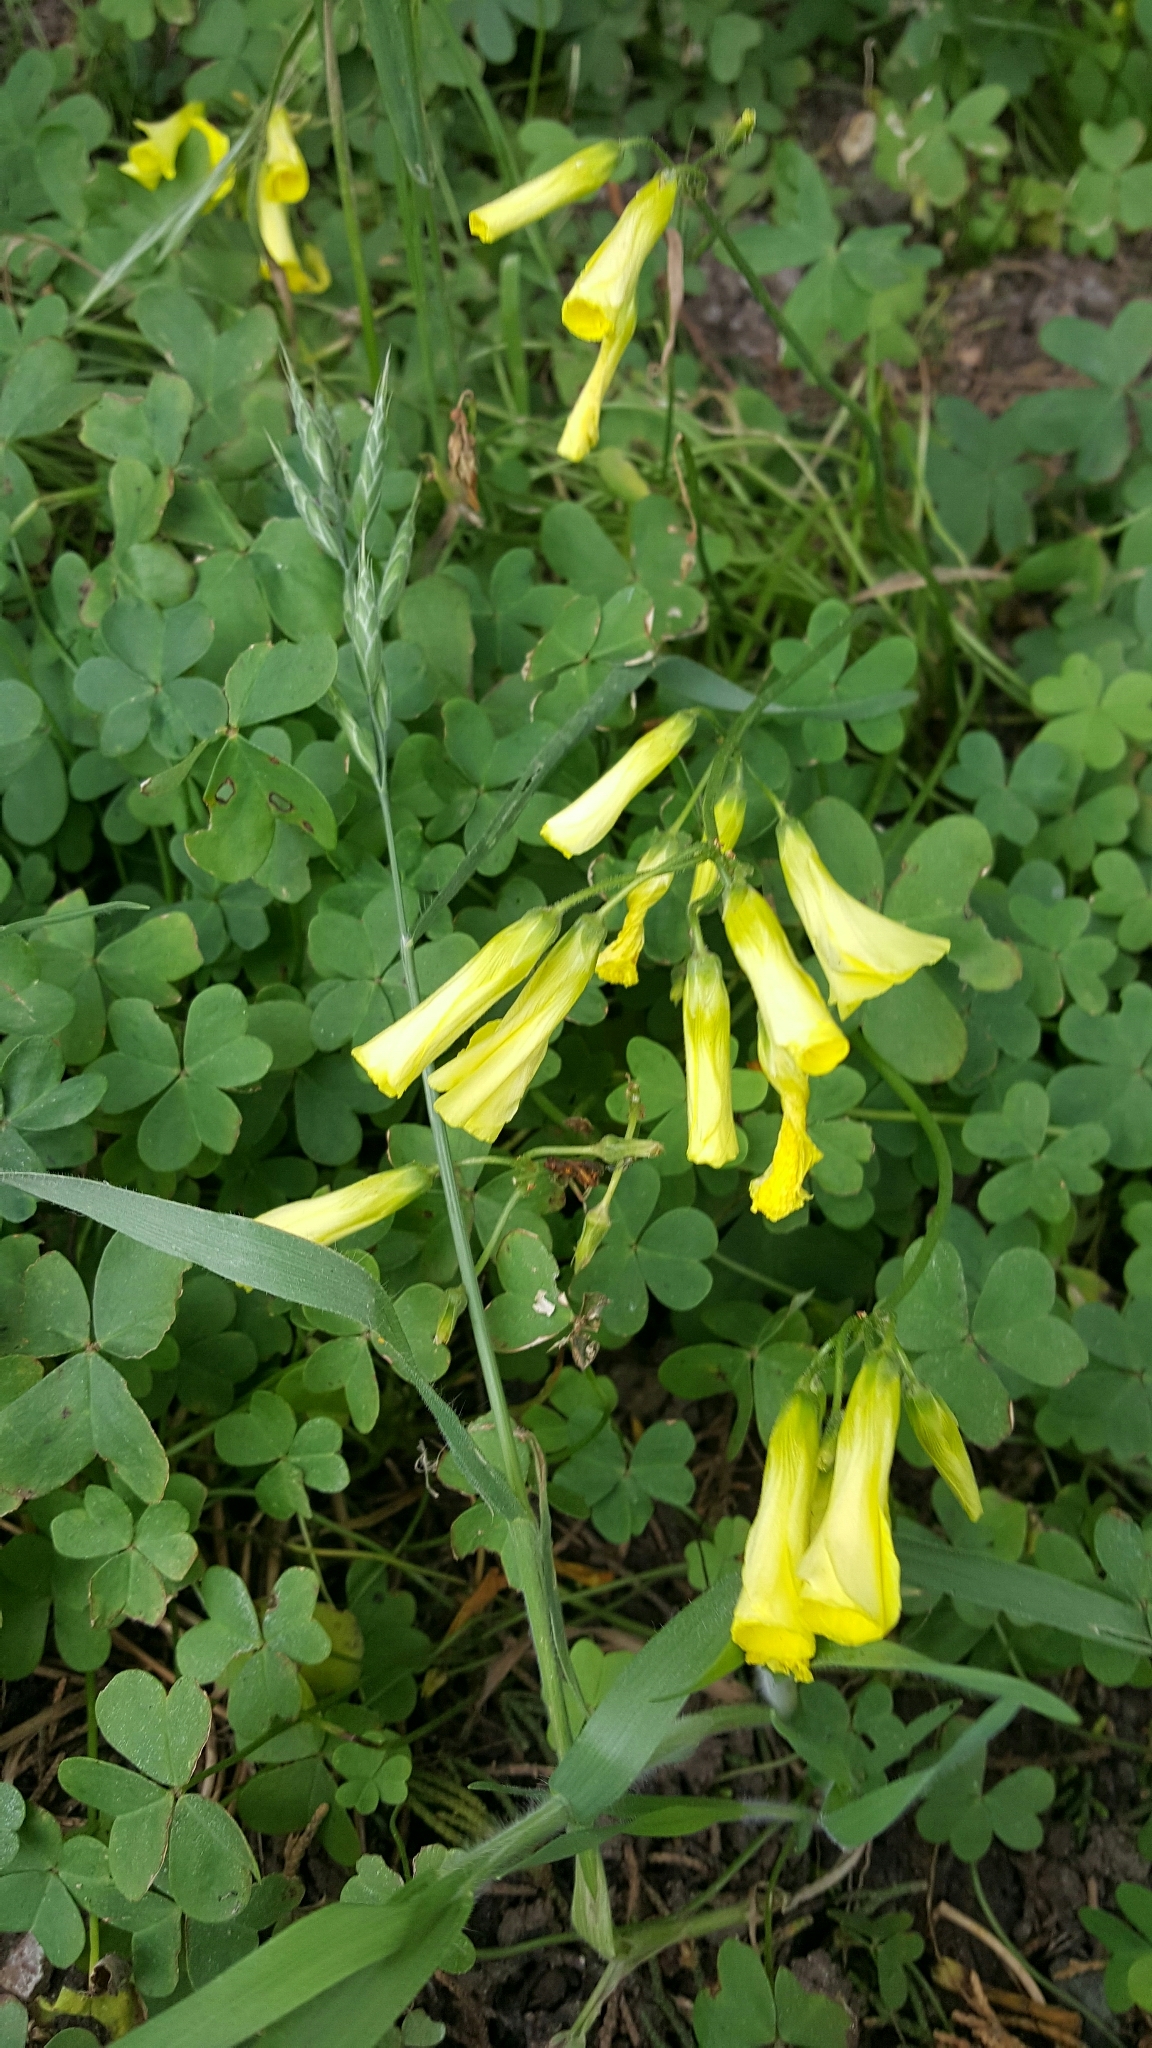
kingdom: Plantae
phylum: Tracheophyta
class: Magnoliopsida
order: Oxalidales
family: Oxalidaceae
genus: Oxalis
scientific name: Oxalis pes-caprae
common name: Bermuda-buttercup
